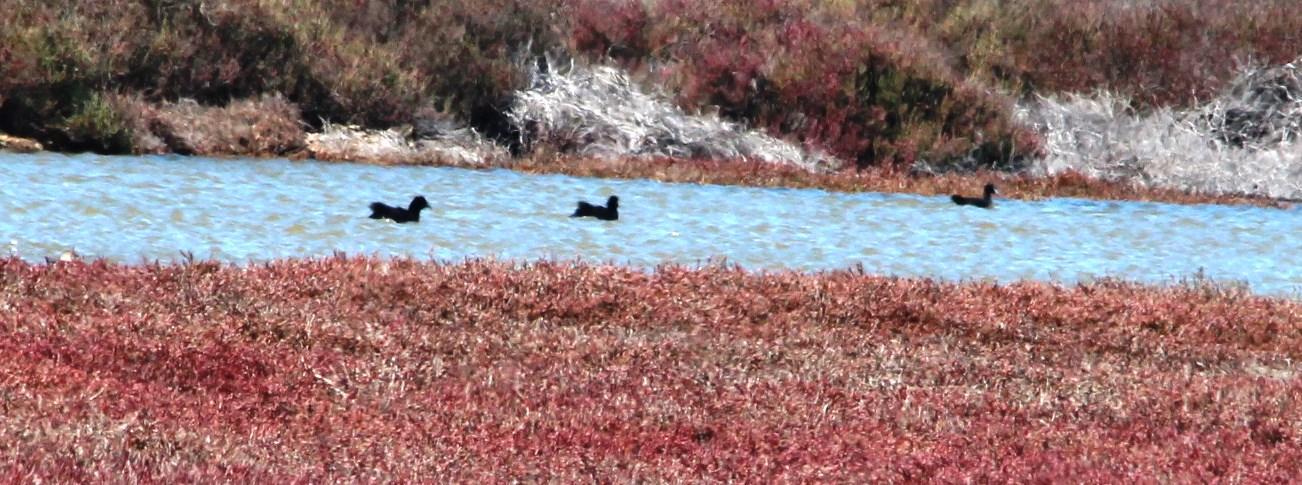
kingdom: Animalia
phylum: Chordata
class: Aves
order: Gruiformes
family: Rallidae
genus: Fulica
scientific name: Fulica cristata
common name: Red-knobbed coot
